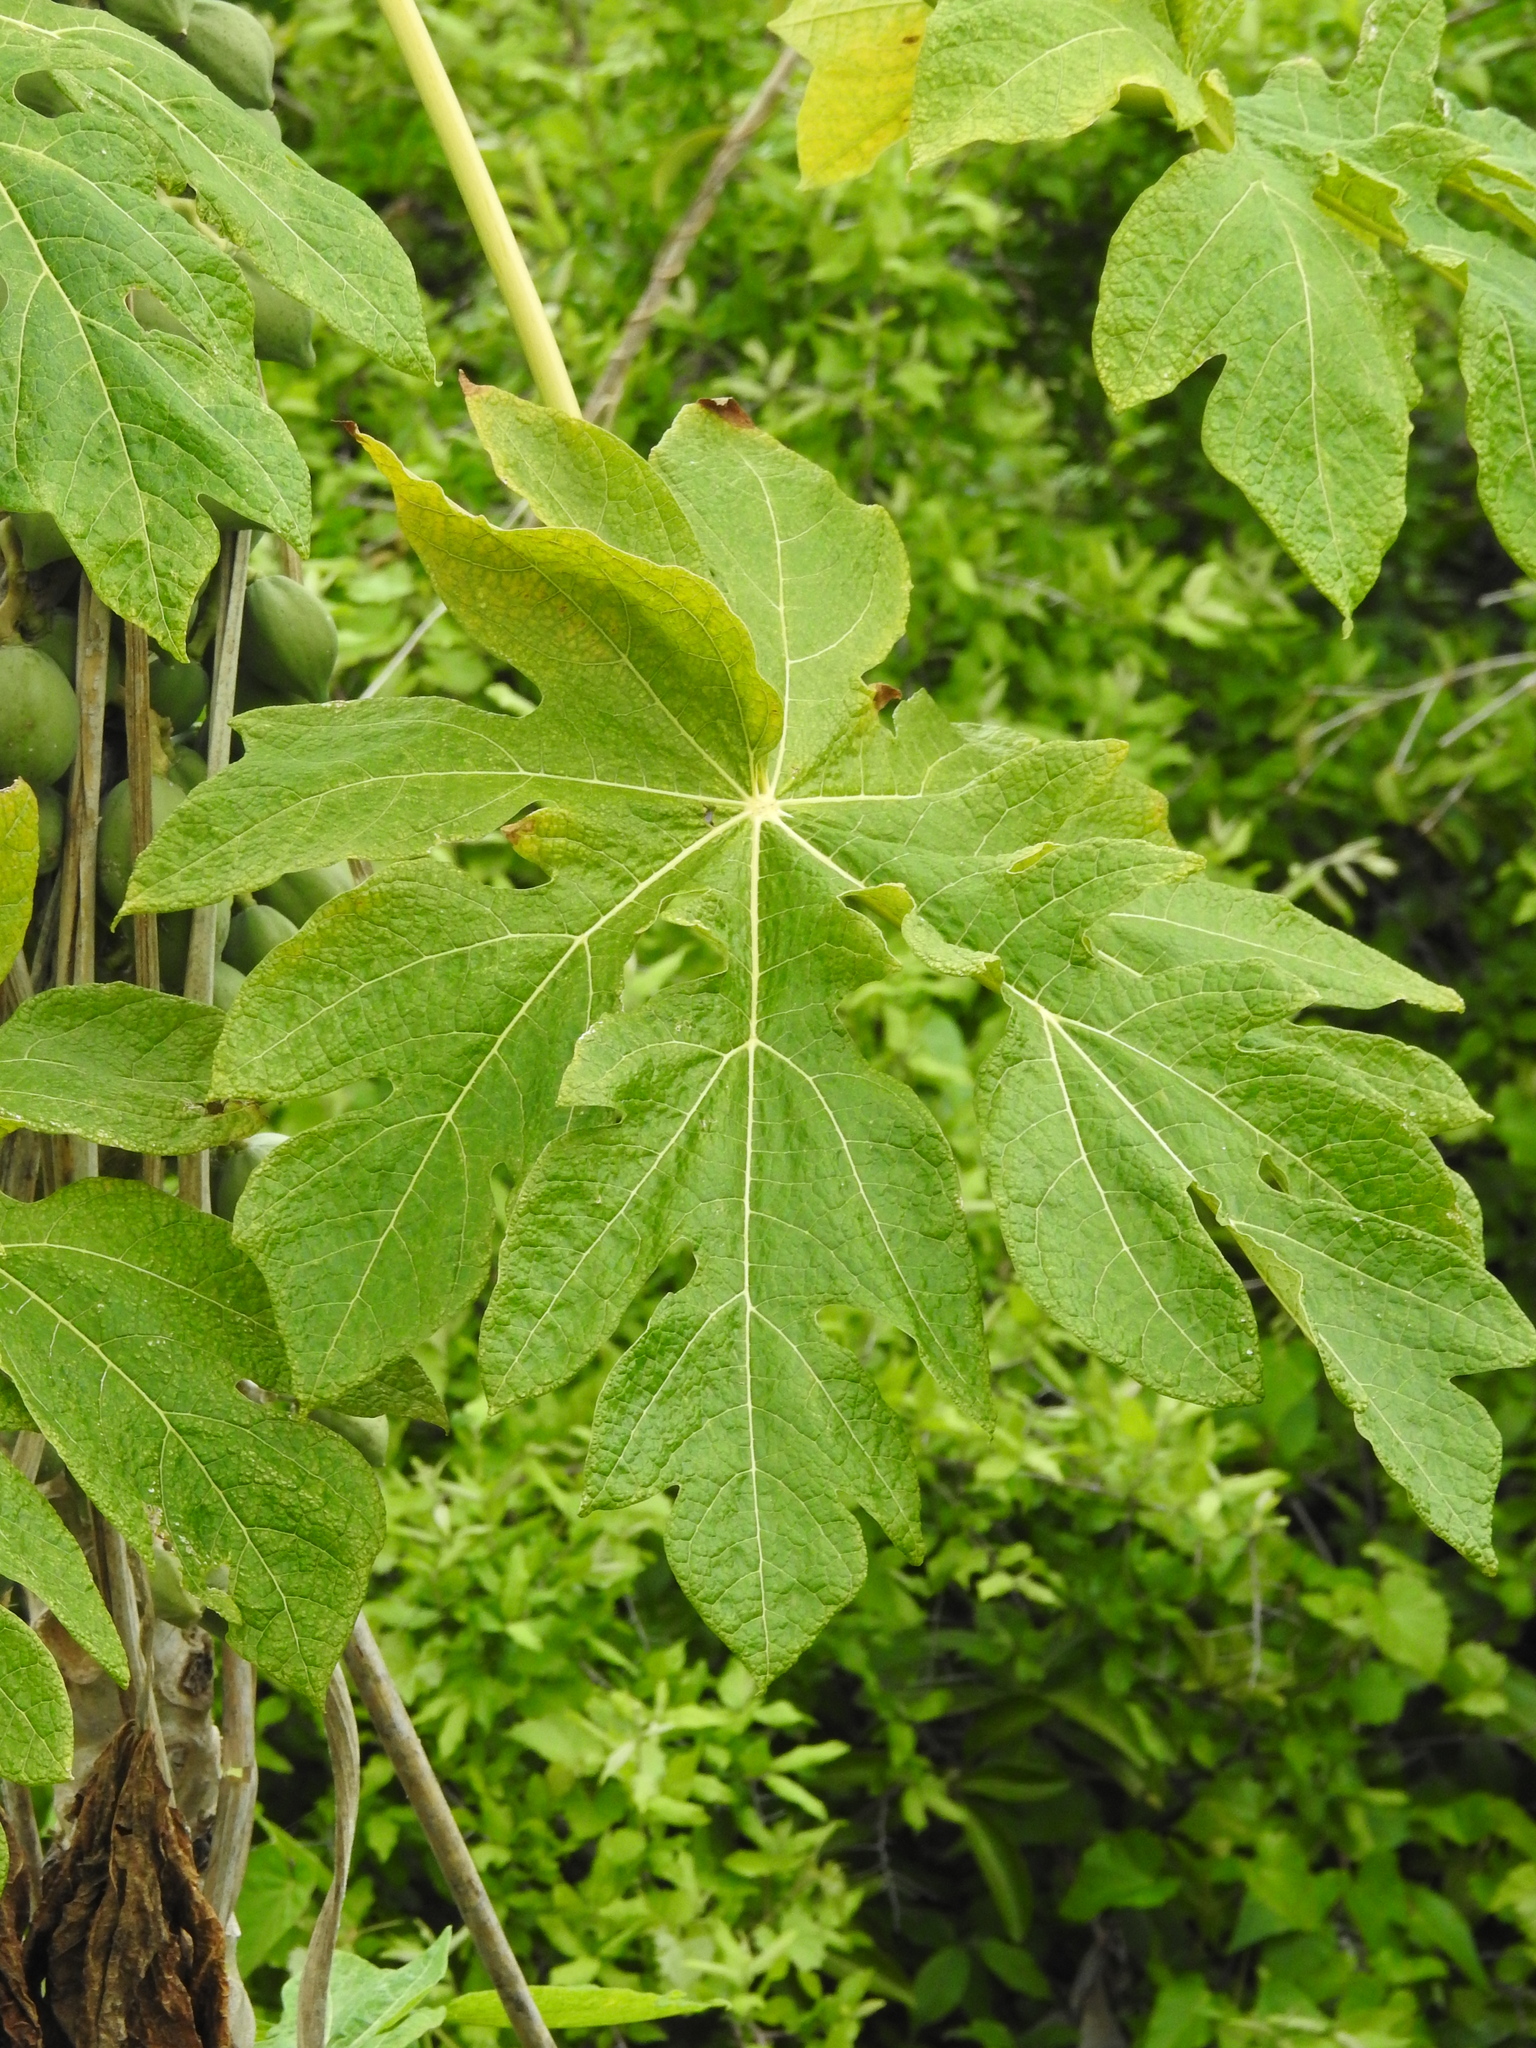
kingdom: Plantae
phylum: Tracheophyta
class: Magnoliopsida
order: Brassicales
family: Caricaceae
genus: Carica
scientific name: Carica papaya
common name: Papaya
